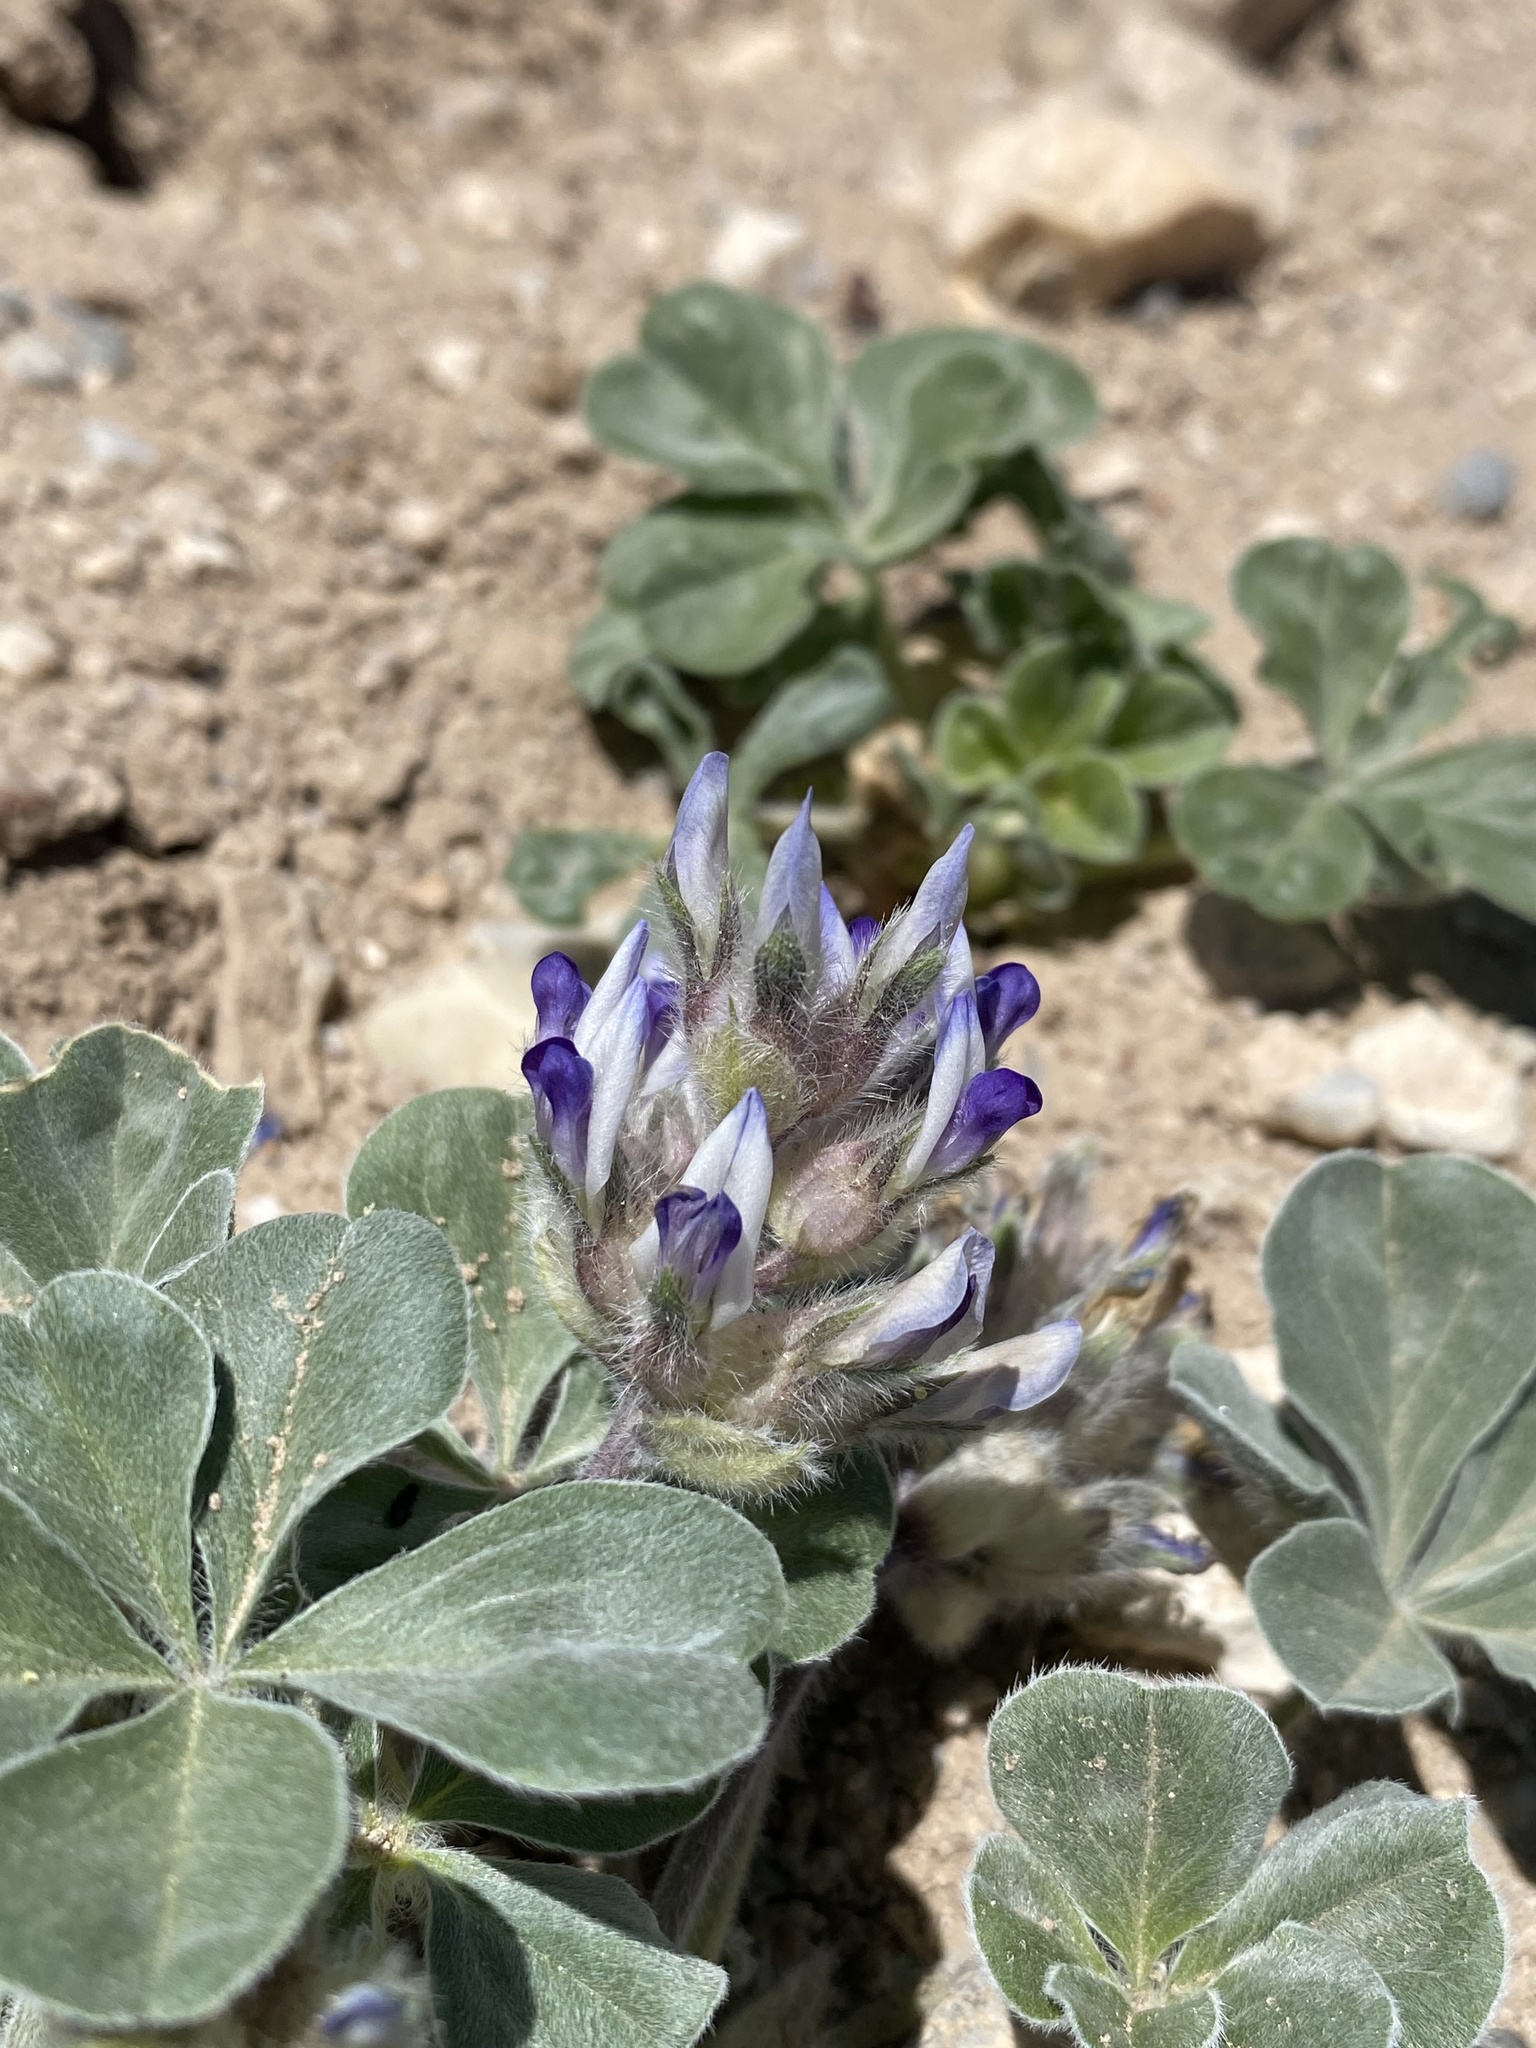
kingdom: Plantae
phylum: Tracheophyta
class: Magnoliopsida
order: Fabales
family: Fabaceae
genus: Pediomelum
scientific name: Pediomelum megalanthum
